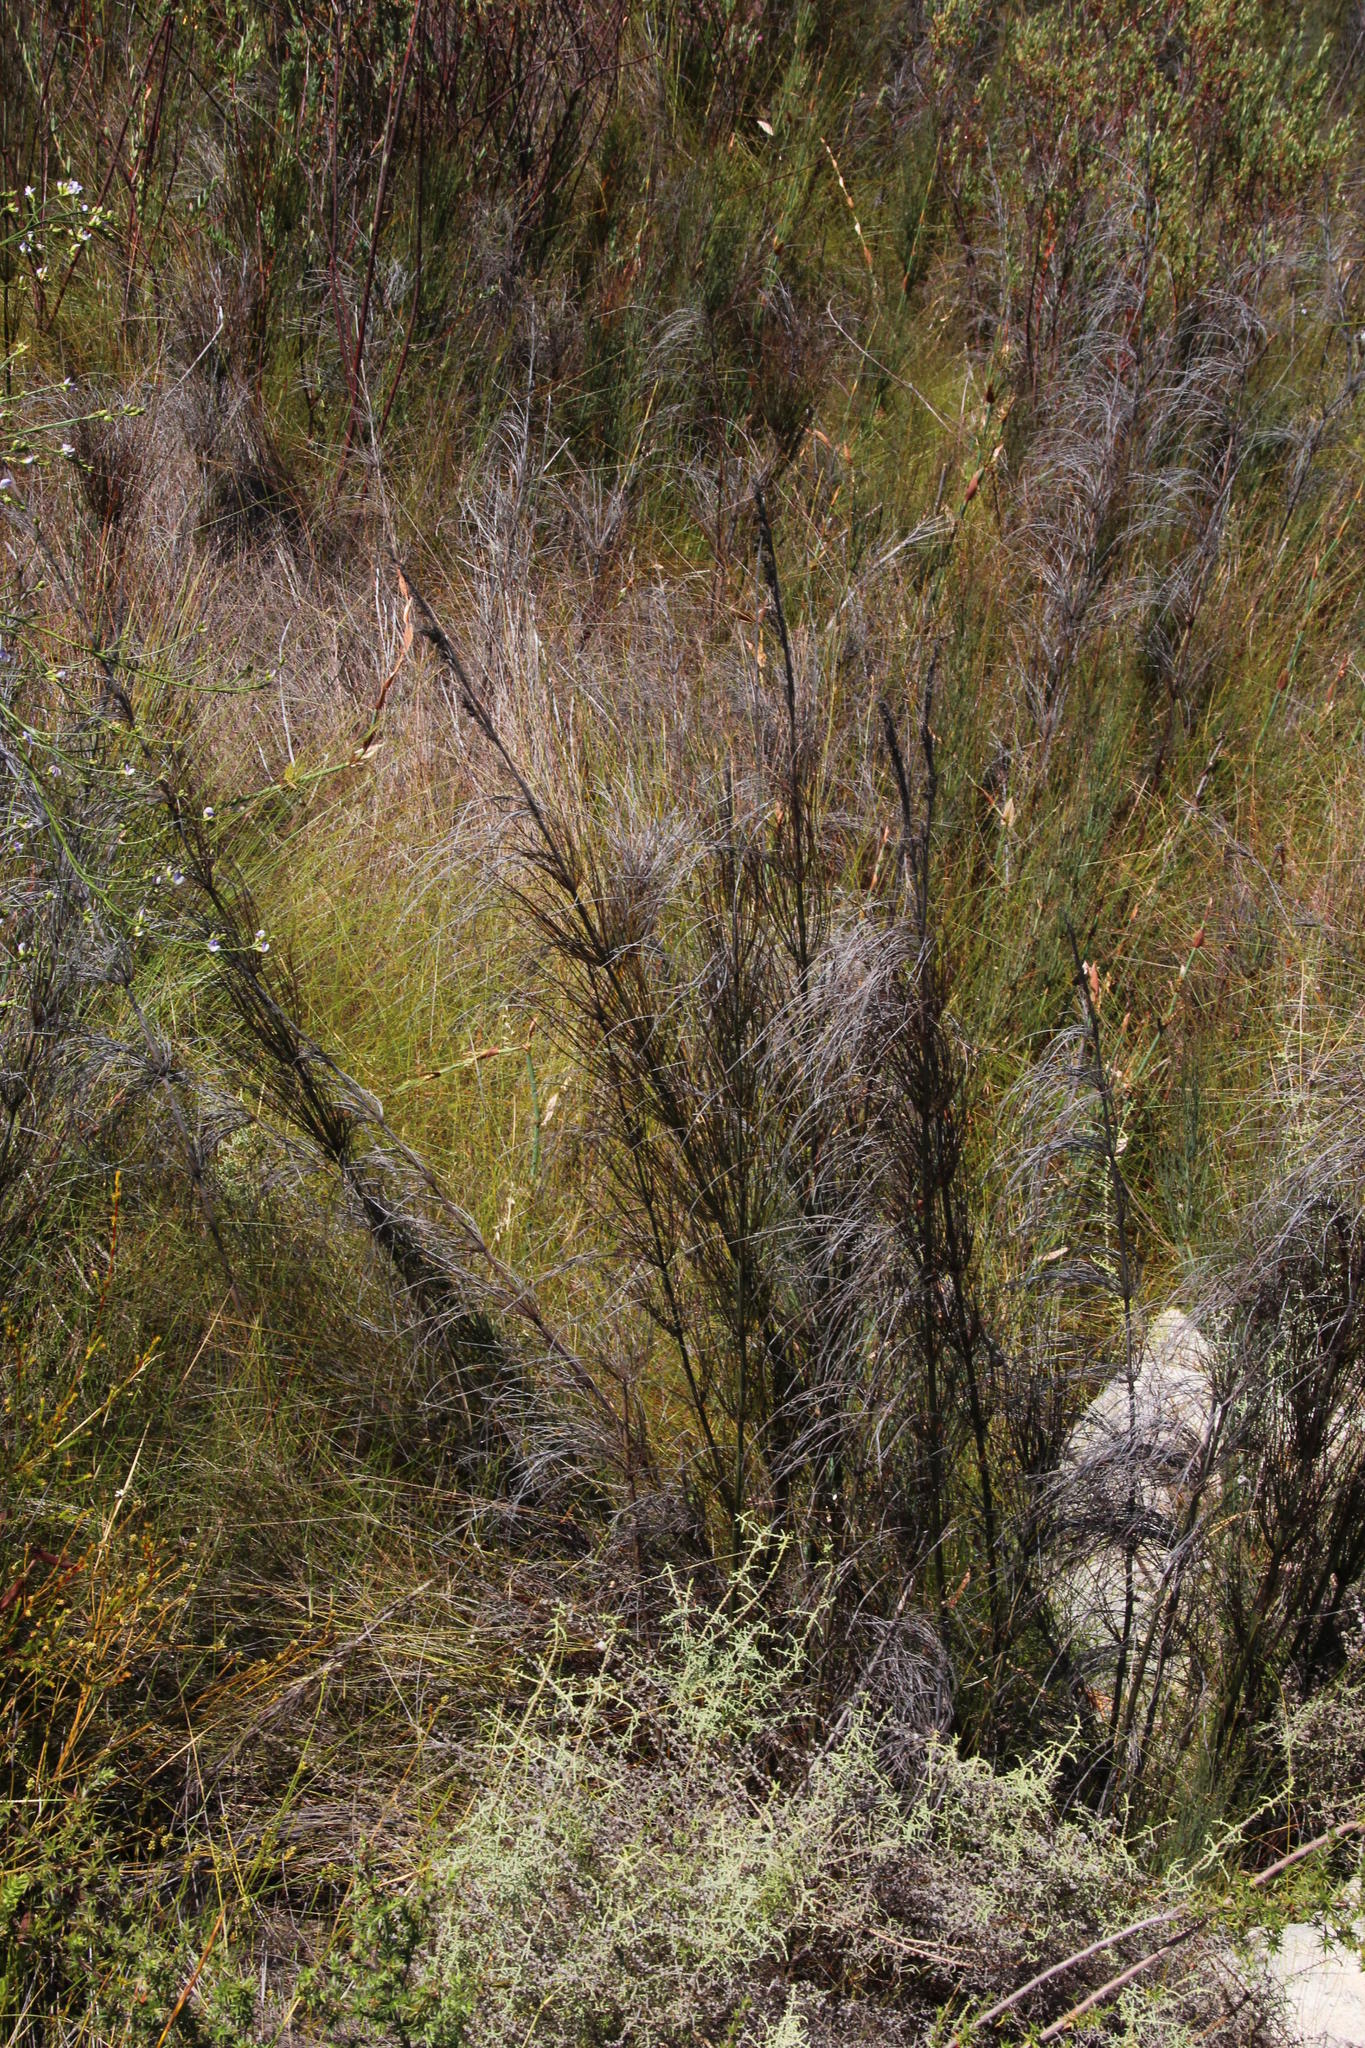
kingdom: Plantae
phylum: Tracheophyta
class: Liliopsida
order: Poales
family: Restionaceae
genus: Elegia
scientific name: Elegia capensis
